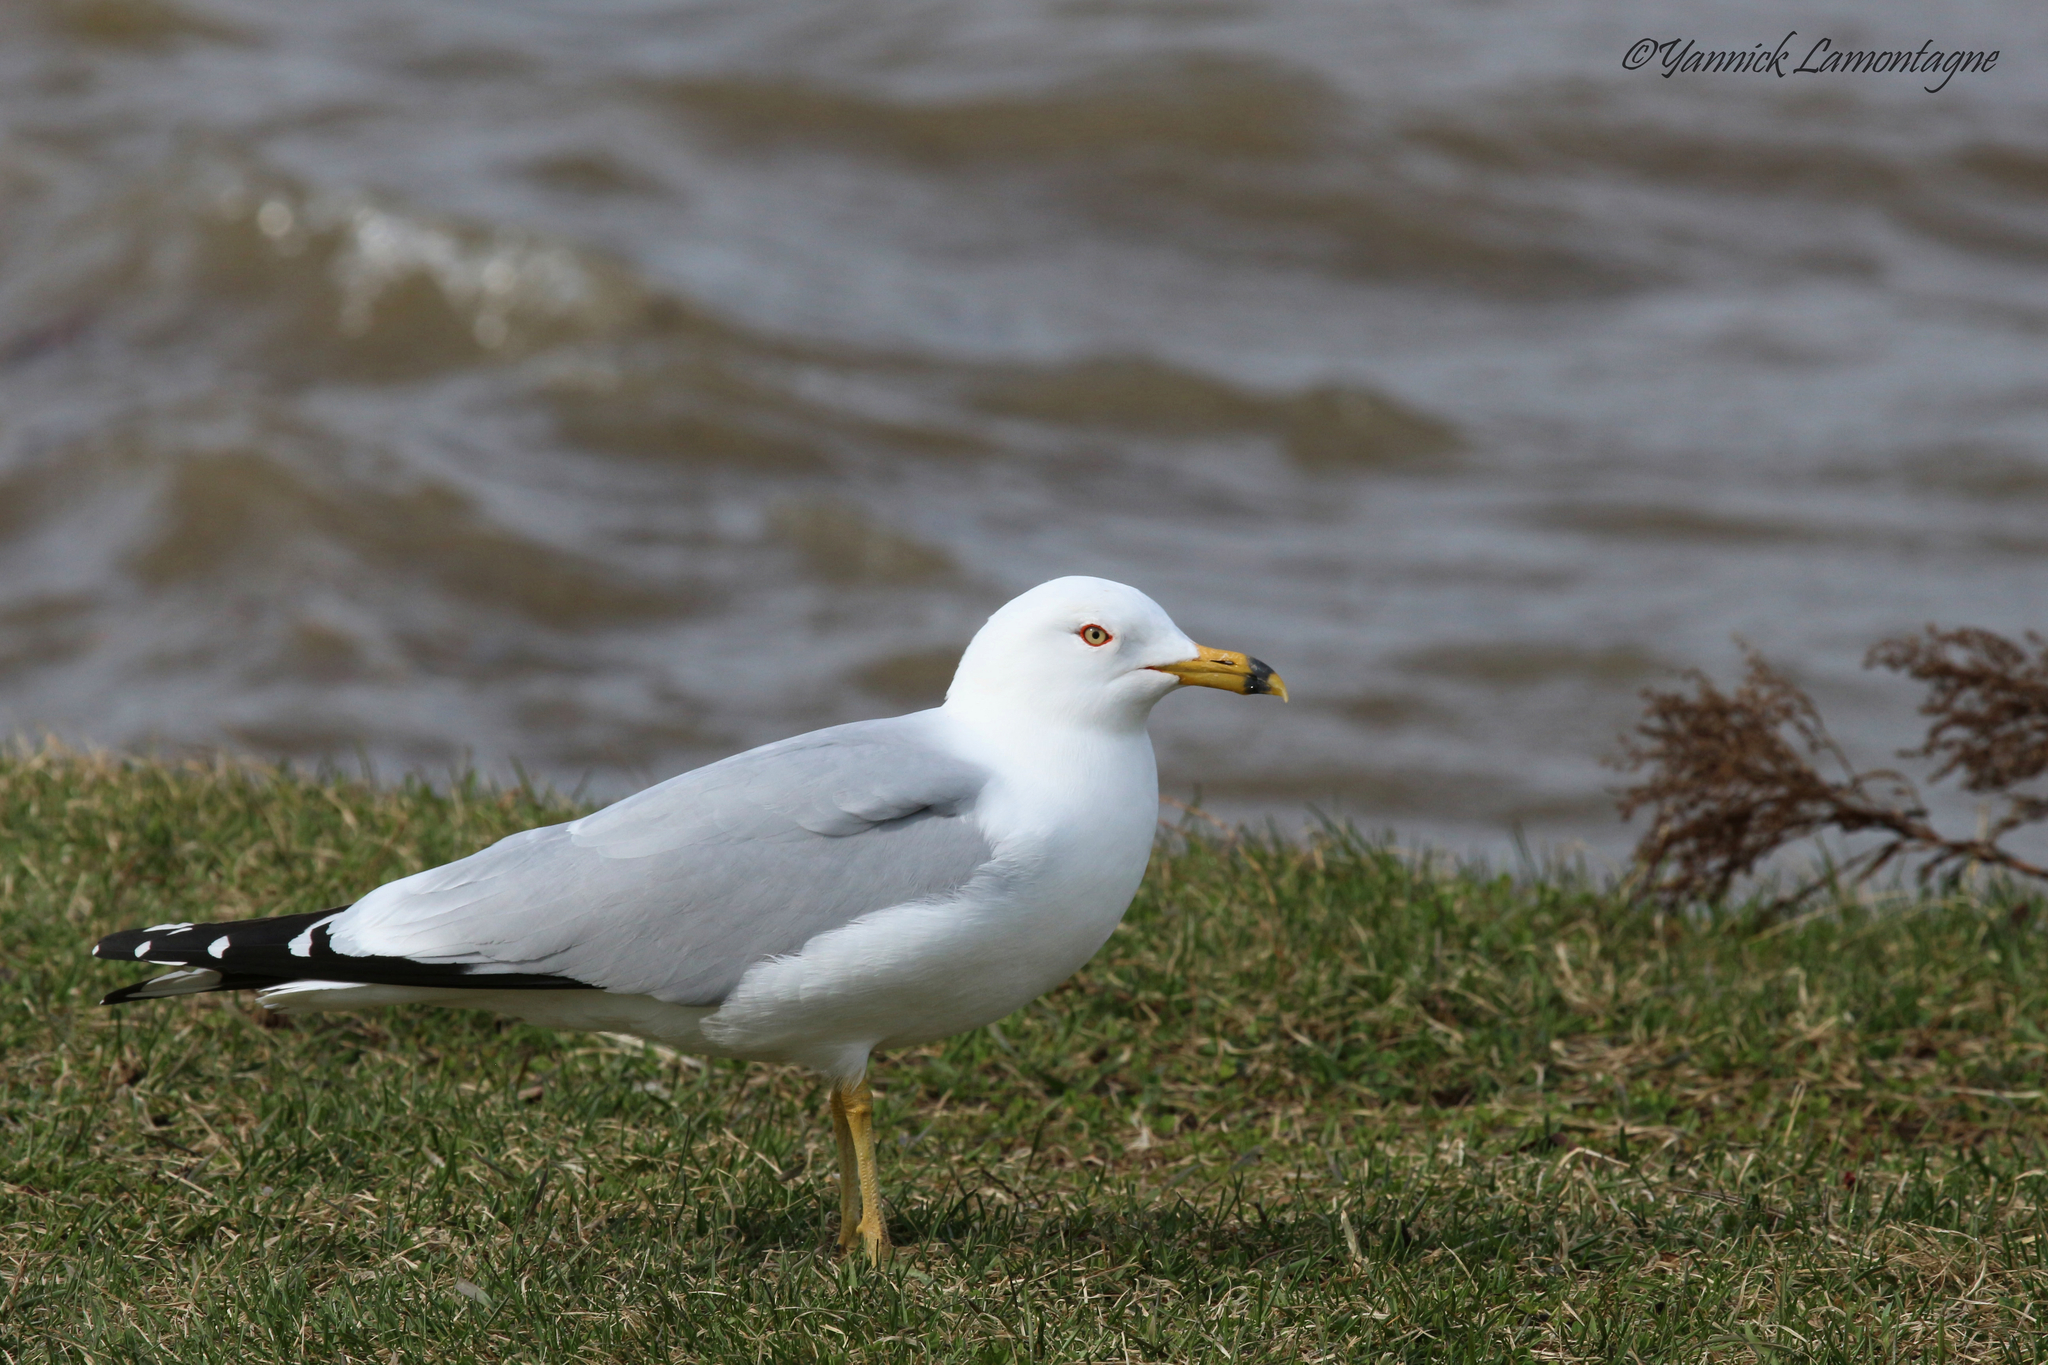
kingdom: Animalia
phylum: Chordata
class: Aves
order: Charadriiformes
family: Laridae
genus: Larus
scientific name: Larus delawarensis
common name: Ring-billed gull
